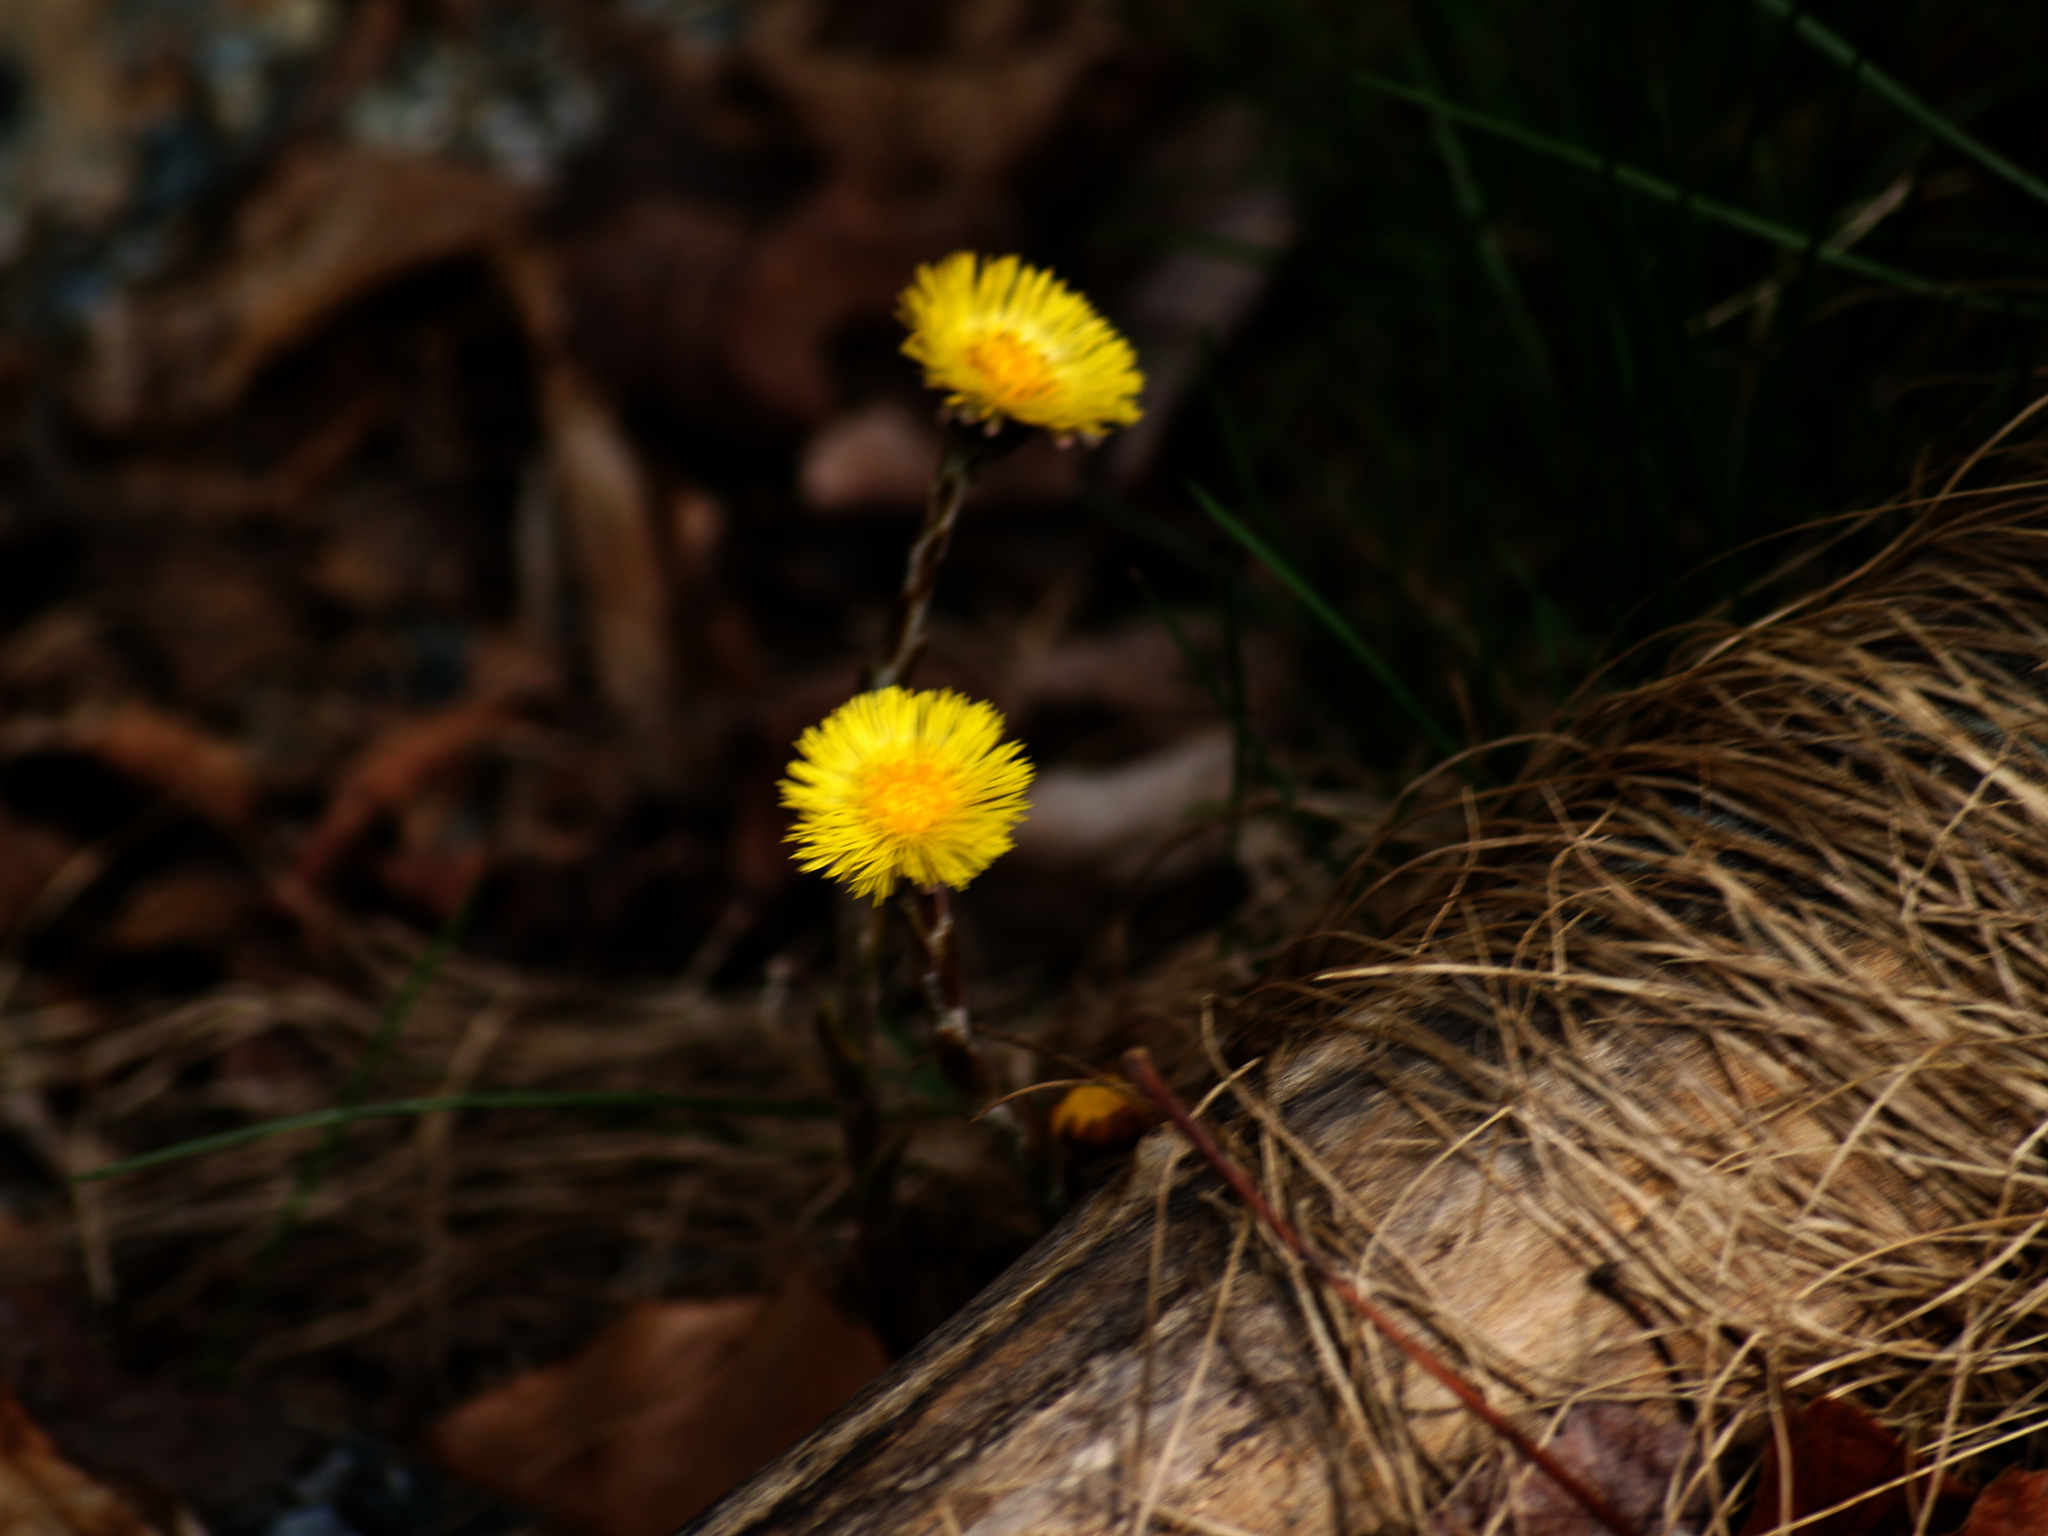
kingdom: Plantae
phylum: Tracheophyta
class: Magnoliopsida
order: Asterales
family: Asteraceae
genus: Tussilago
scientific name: Tussilago farfara
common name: Coltsfoot
